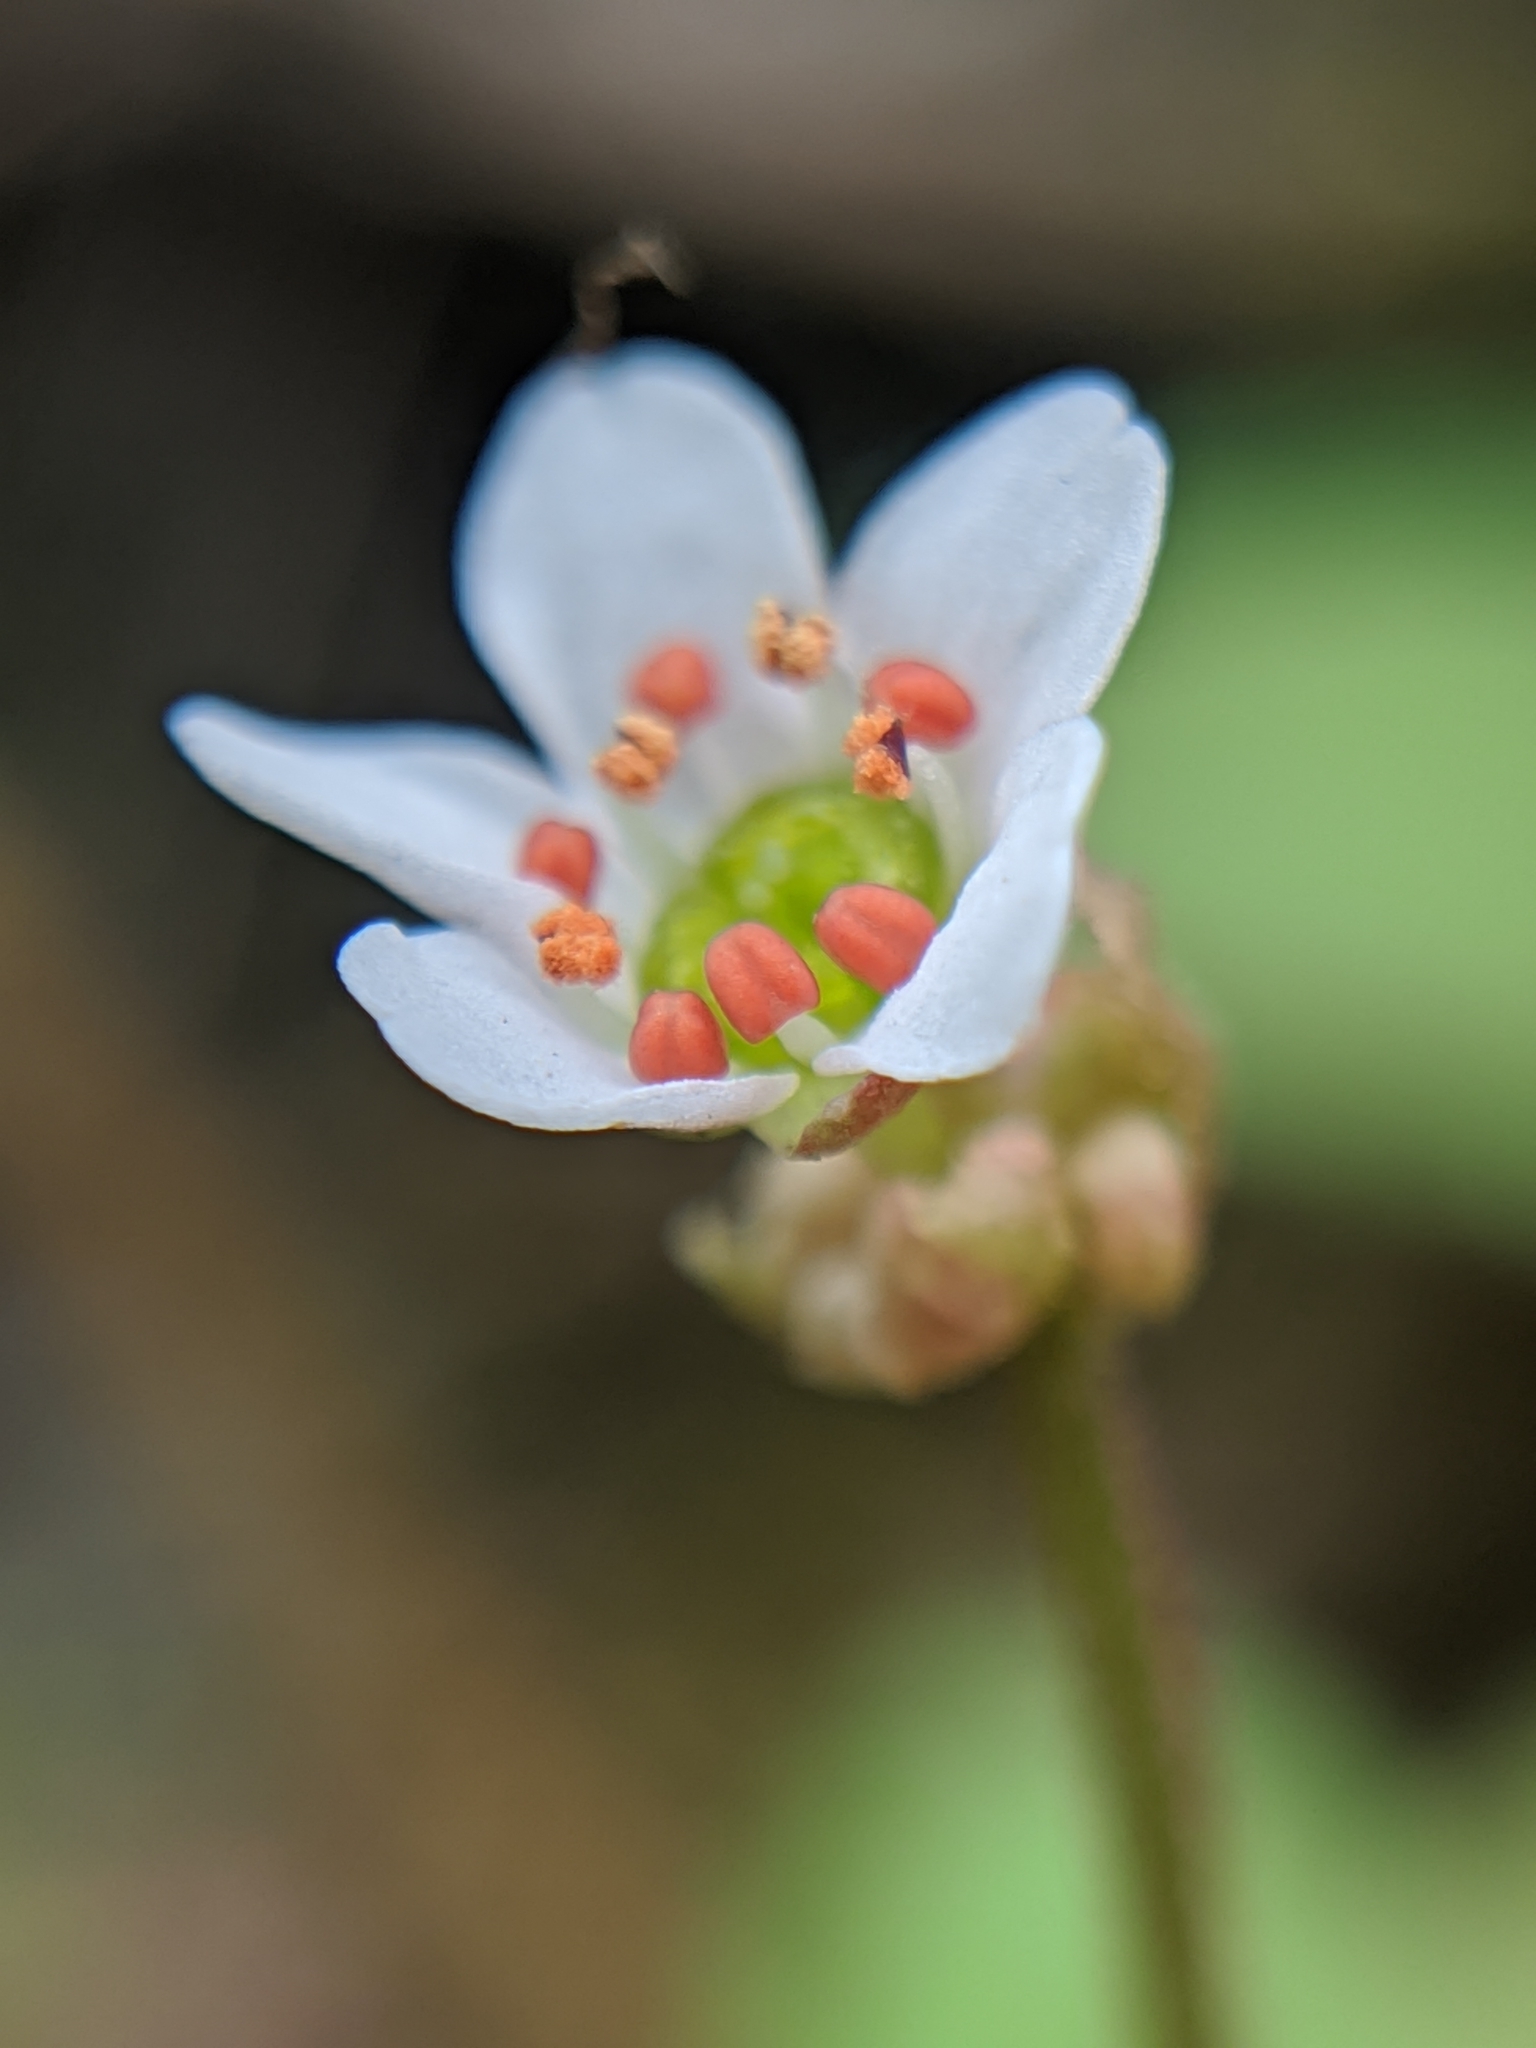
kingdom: Plantae
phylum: Tracheophyta
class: Magnoliopsida
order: Saxifragales
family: Saxifragaceae
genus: Micranthes
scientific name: Micranthes californica
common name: California saxifrage
